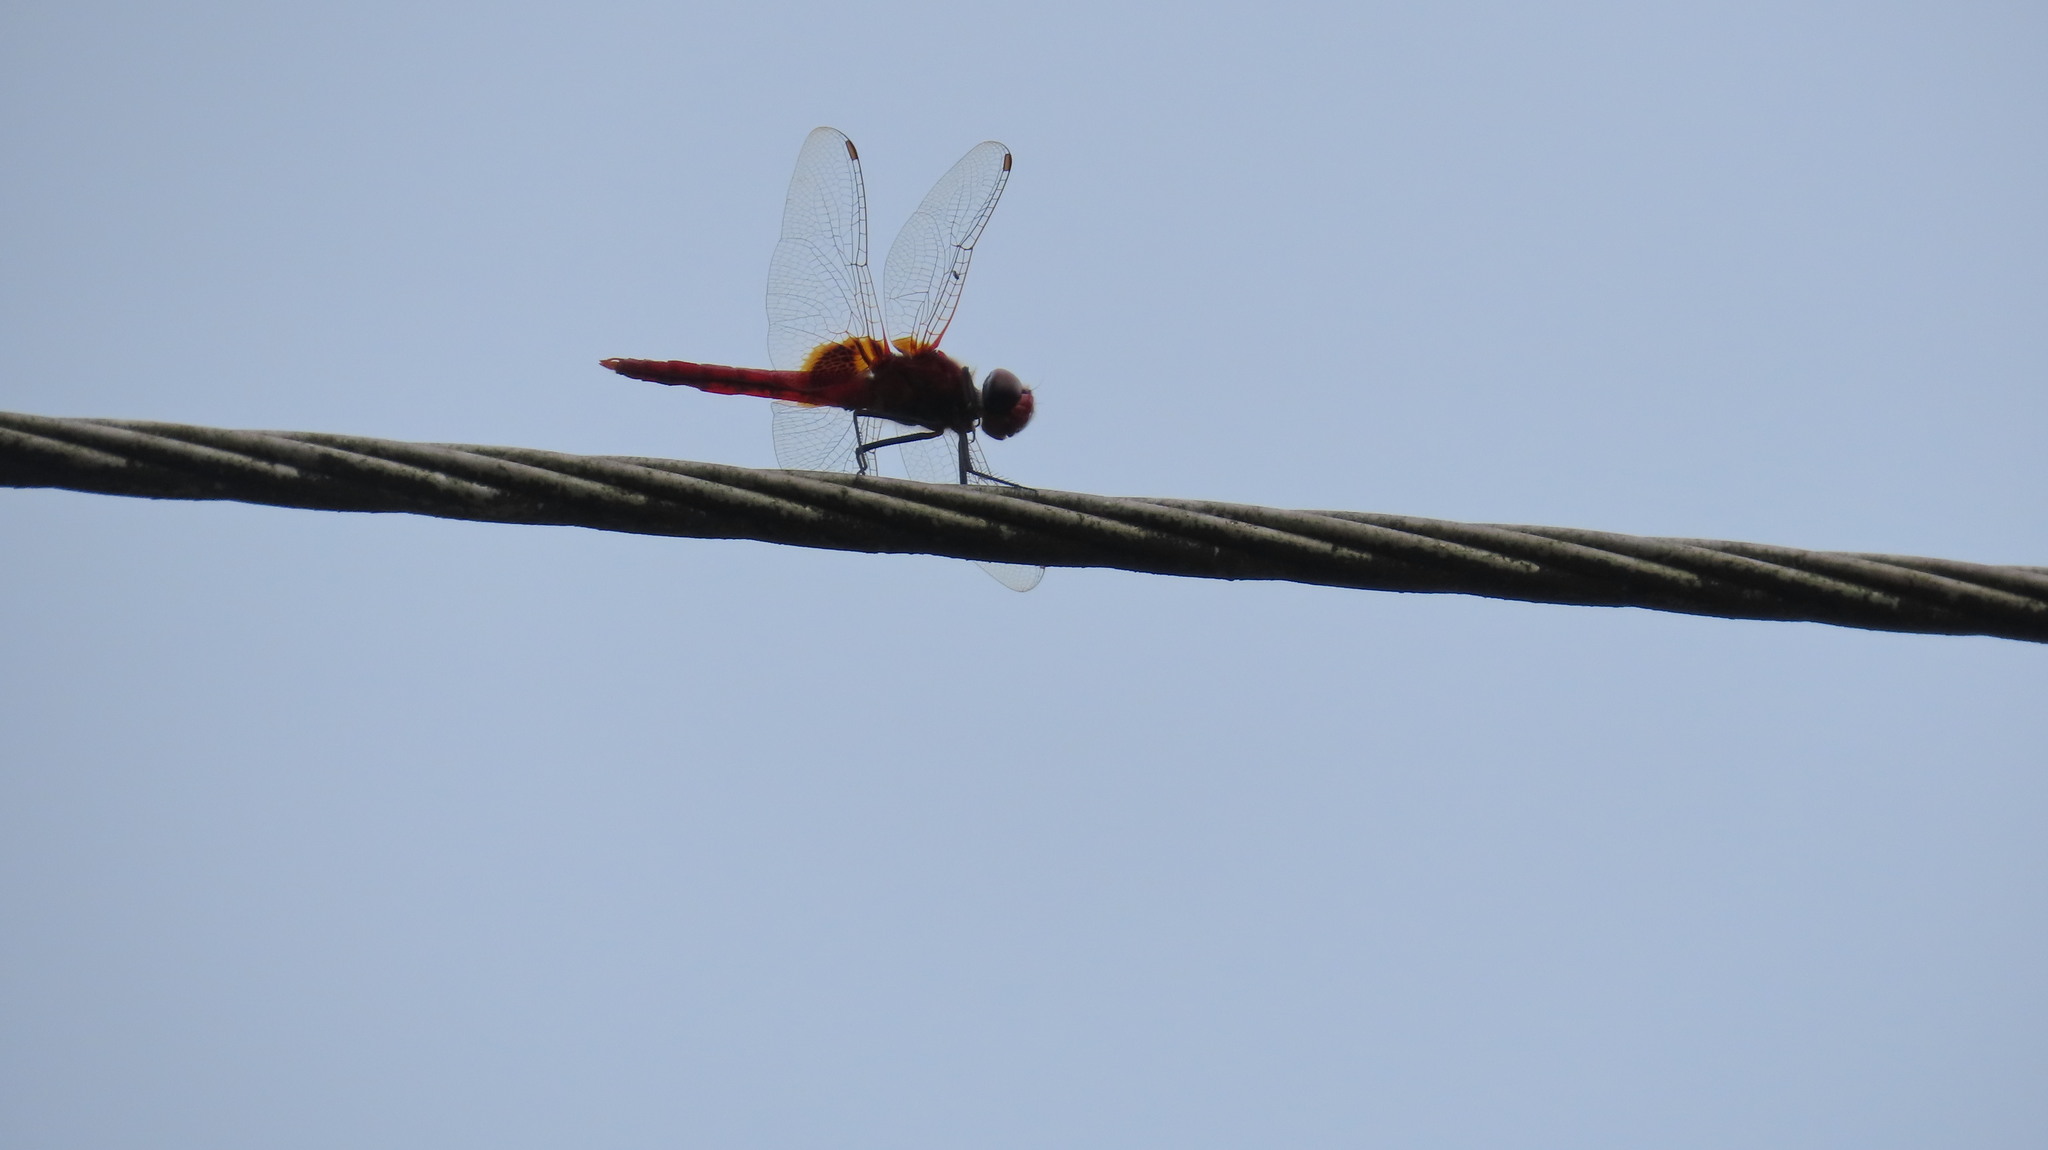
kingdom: Animalia
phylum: Arthropoda
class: Insecta
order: Odonata
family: Libellulidae
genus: Urothemis
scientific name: Urothemis signata
